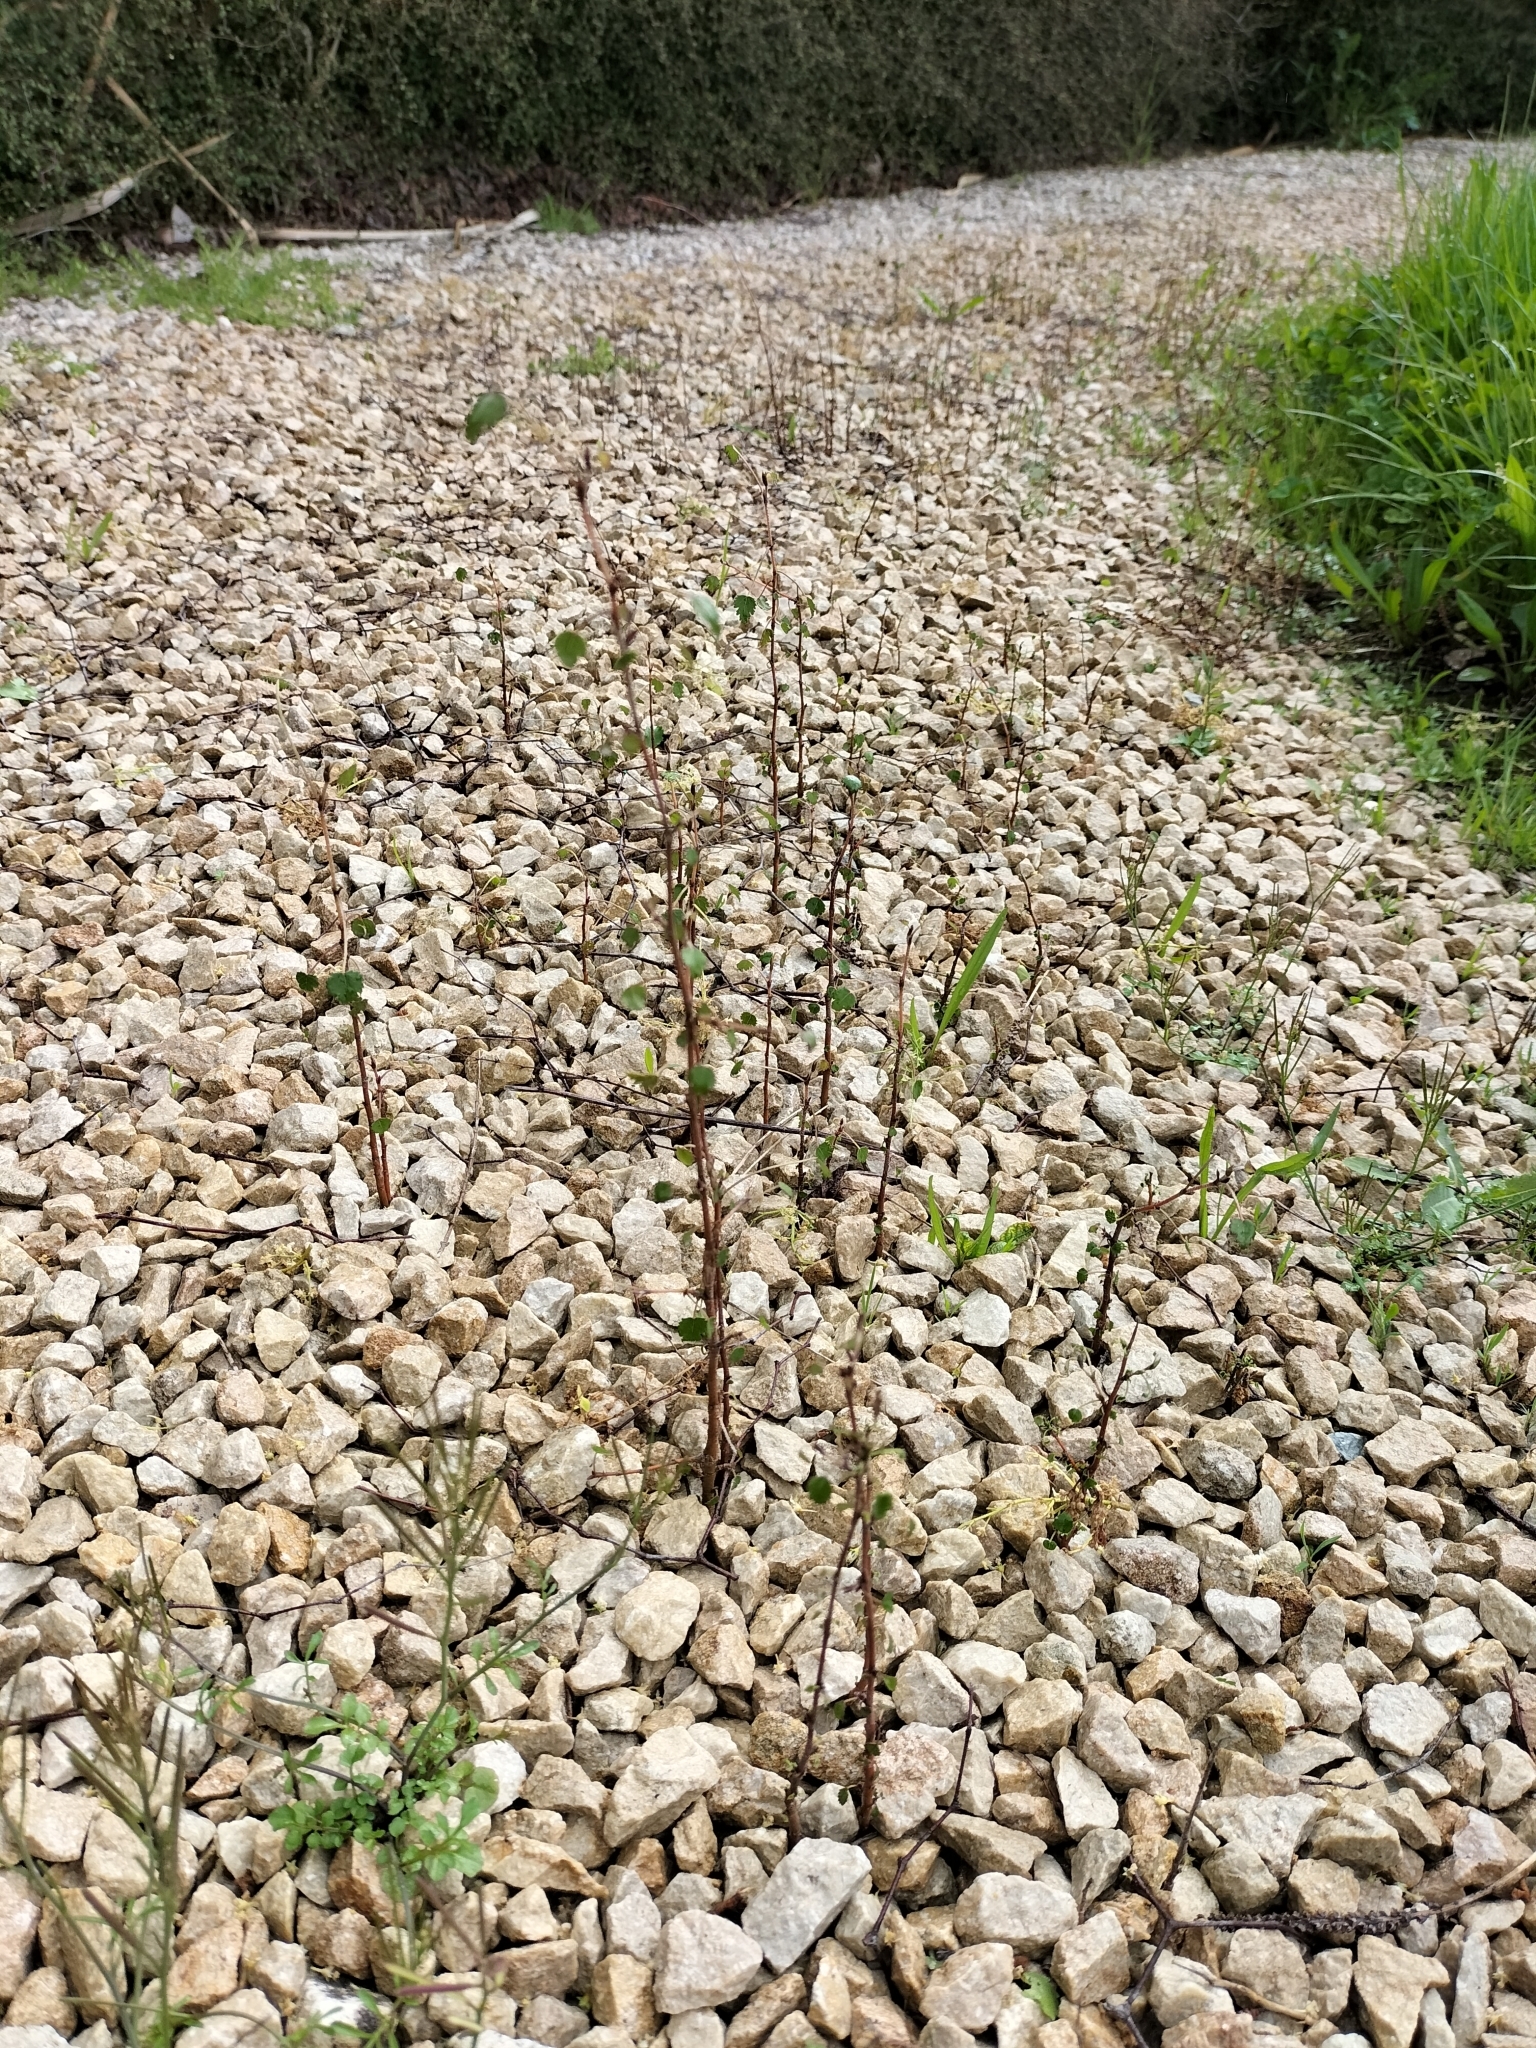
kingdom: Plantae
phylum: Tracheophyta
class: Magnoliopsida
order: Malvales
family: Malvaceae
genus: Plagianthus
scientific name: Plagianthus regius
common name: Manatu
